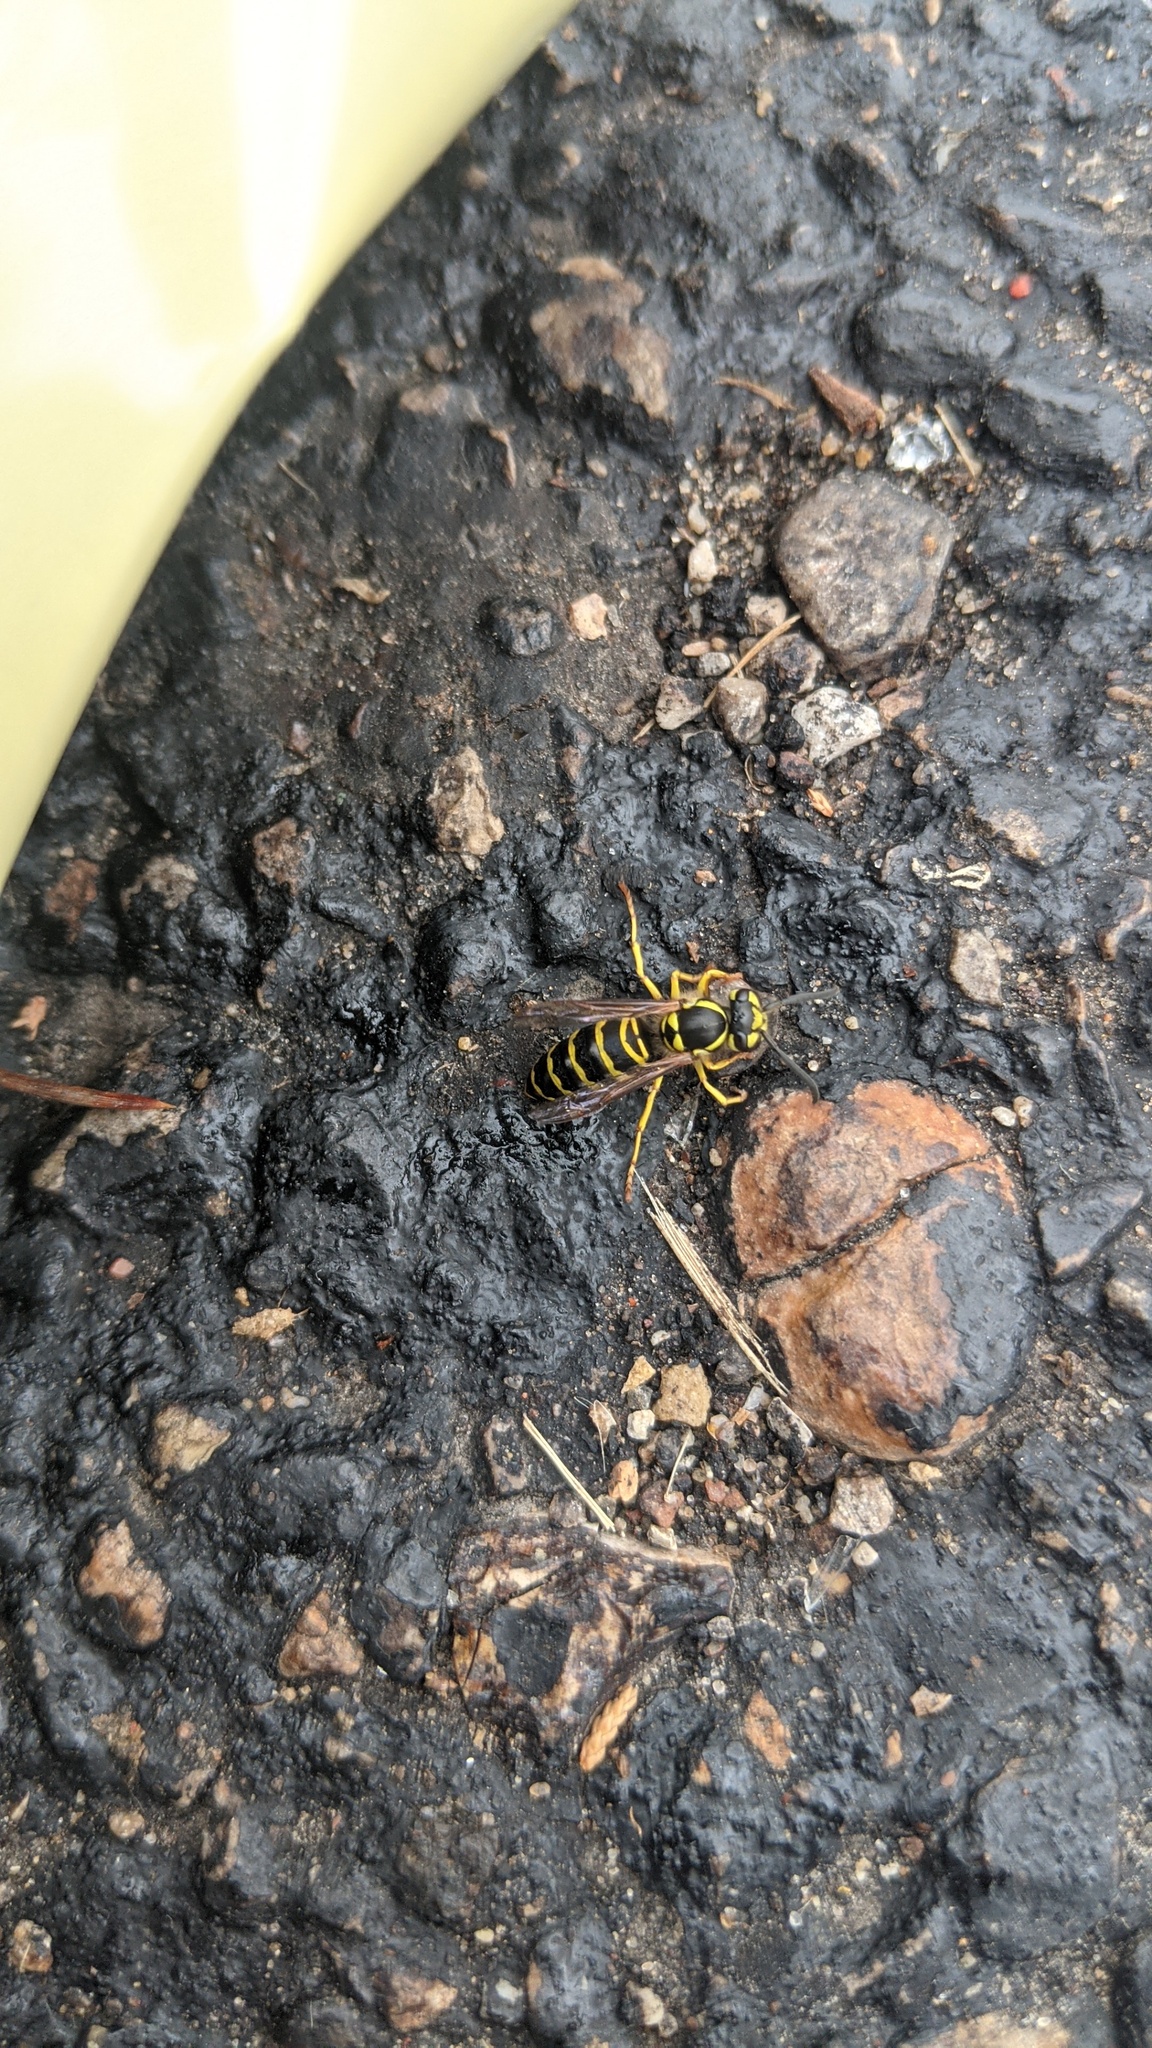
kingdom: Animalia
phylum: Arthropoda
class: Insecta
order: Hymenoptera
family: Vespidae
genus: Vespula
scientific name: Vespula maculifrons
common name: Eastern yellowjacket
